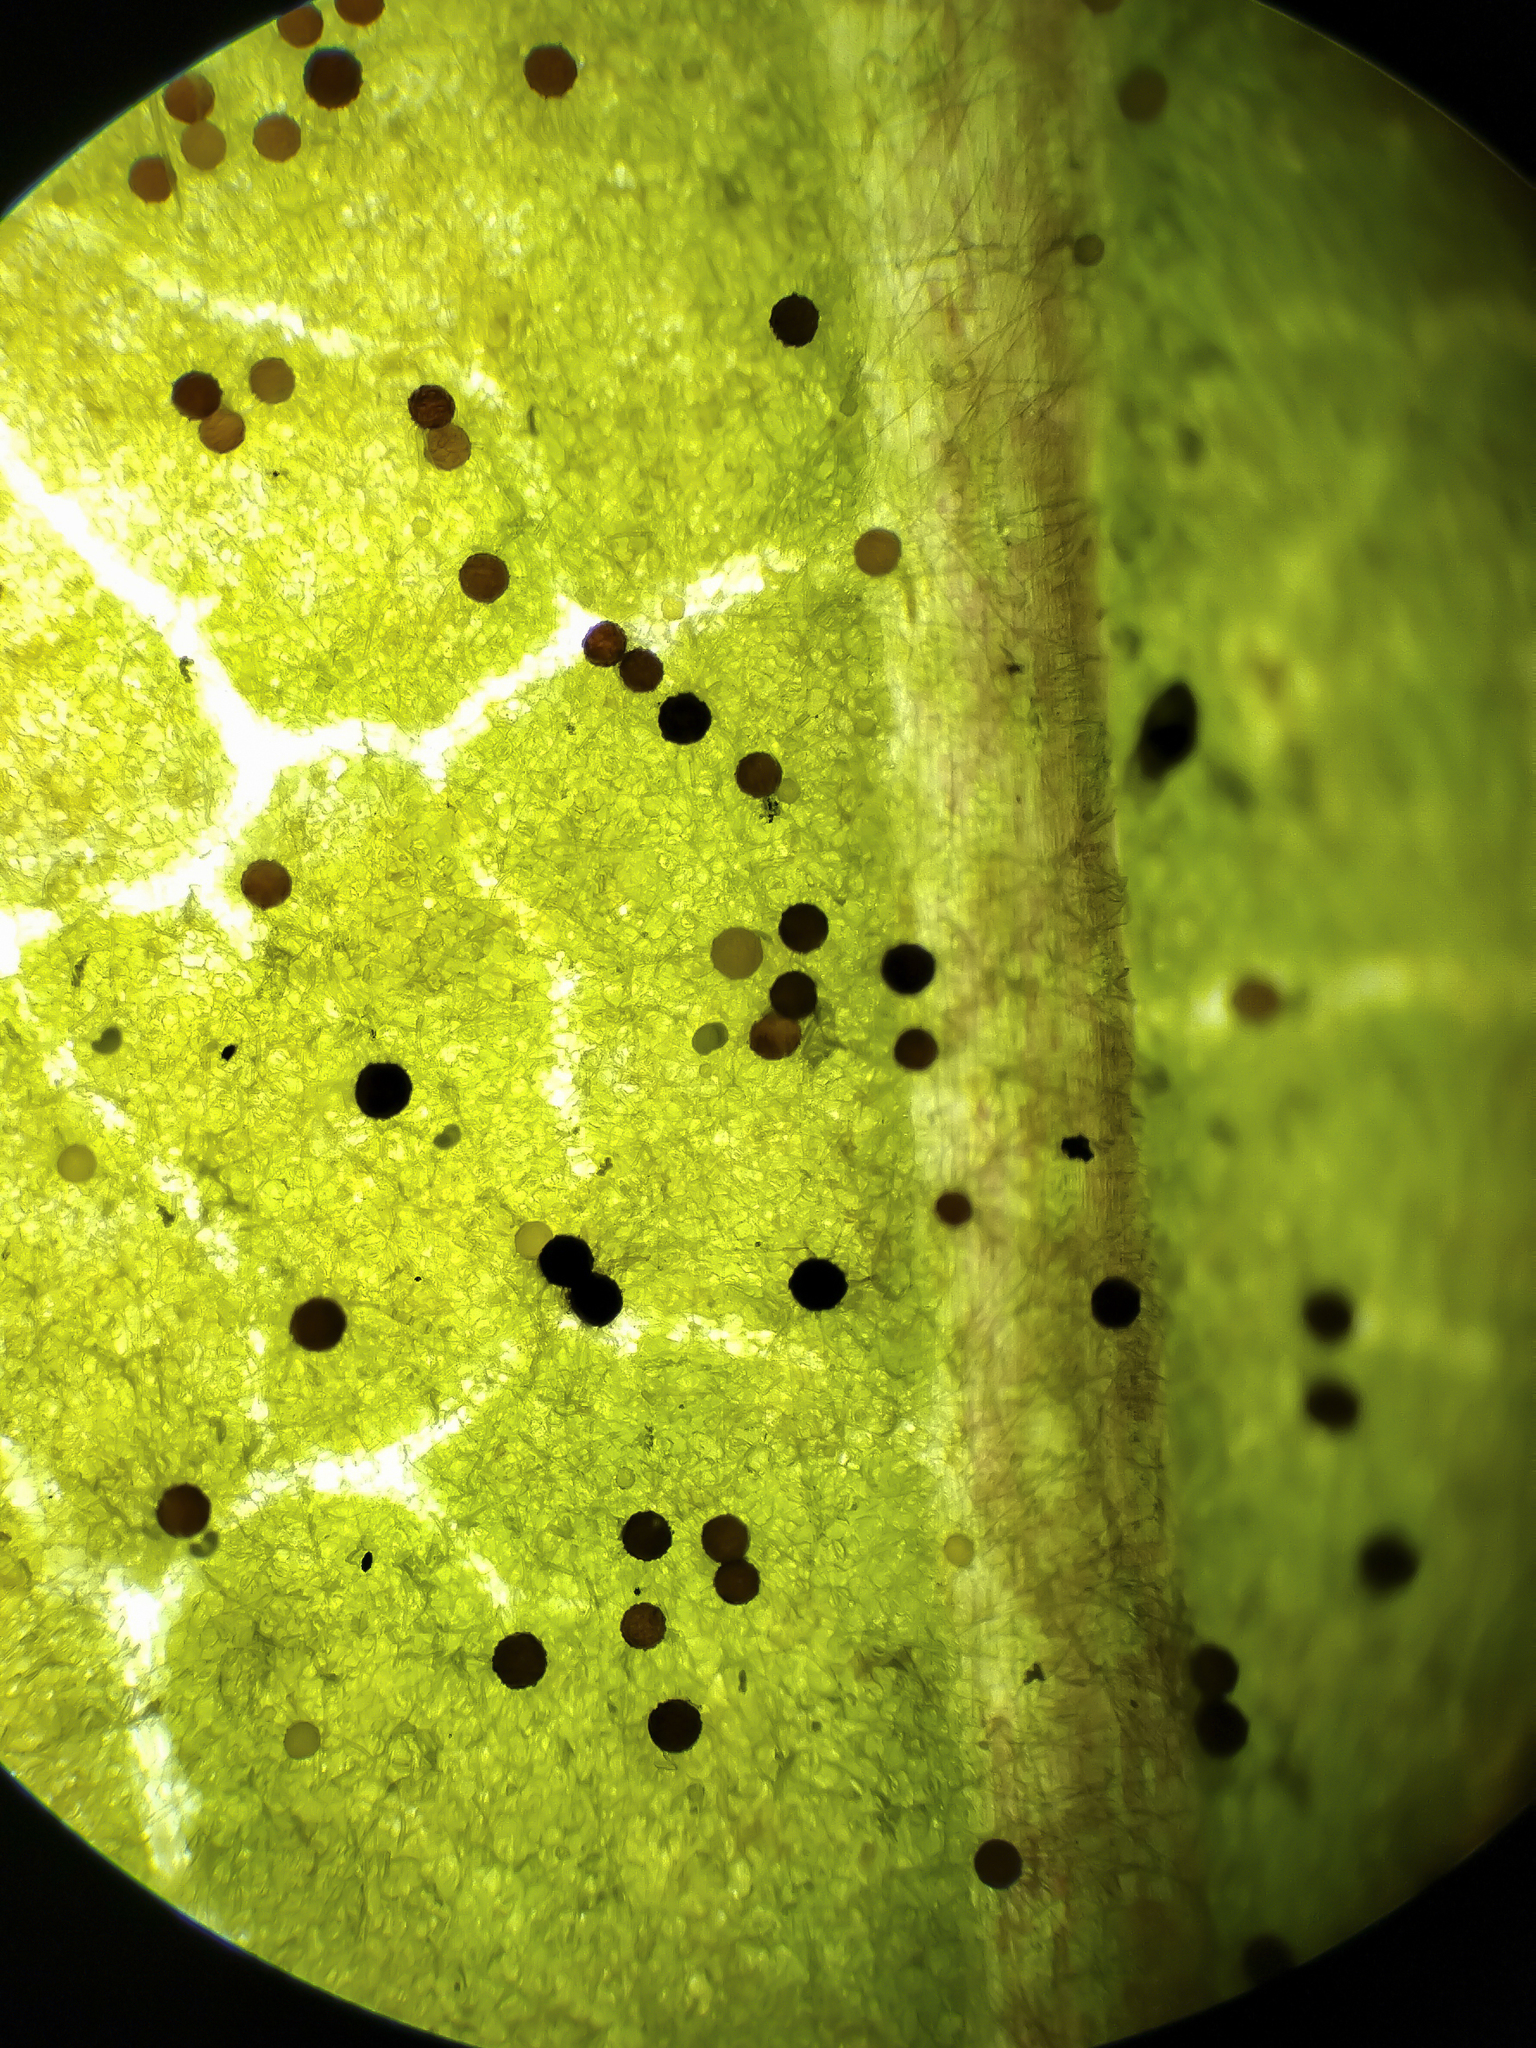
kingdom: Fungi
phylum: Ascomycota
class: Leotiomycetes
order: Helotiales
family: Erysiphaceae
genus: Erysiphe
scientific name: Erysiphe convolvuli
